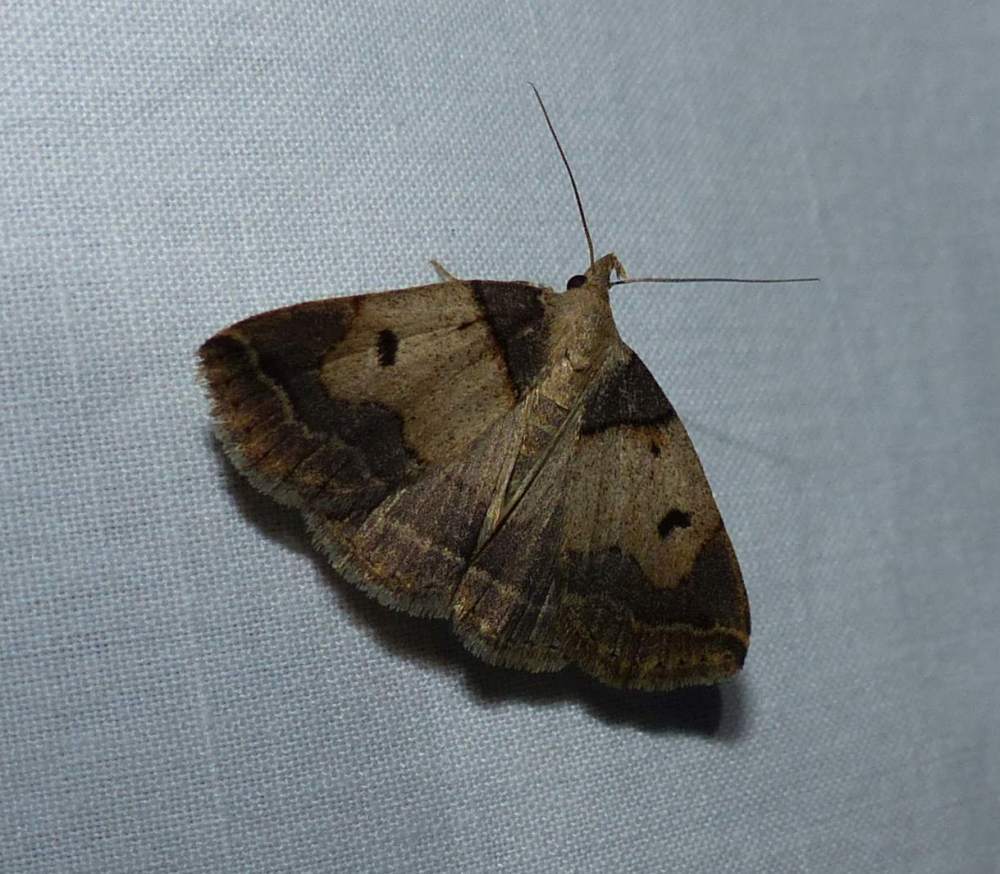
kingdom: Animalia
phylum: Arthropoda
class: Insecta
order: Lepidoptera
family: Erebidae
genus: Zanclognatha
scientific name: Zanclognatha laevigata
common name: Variable fan-foot
